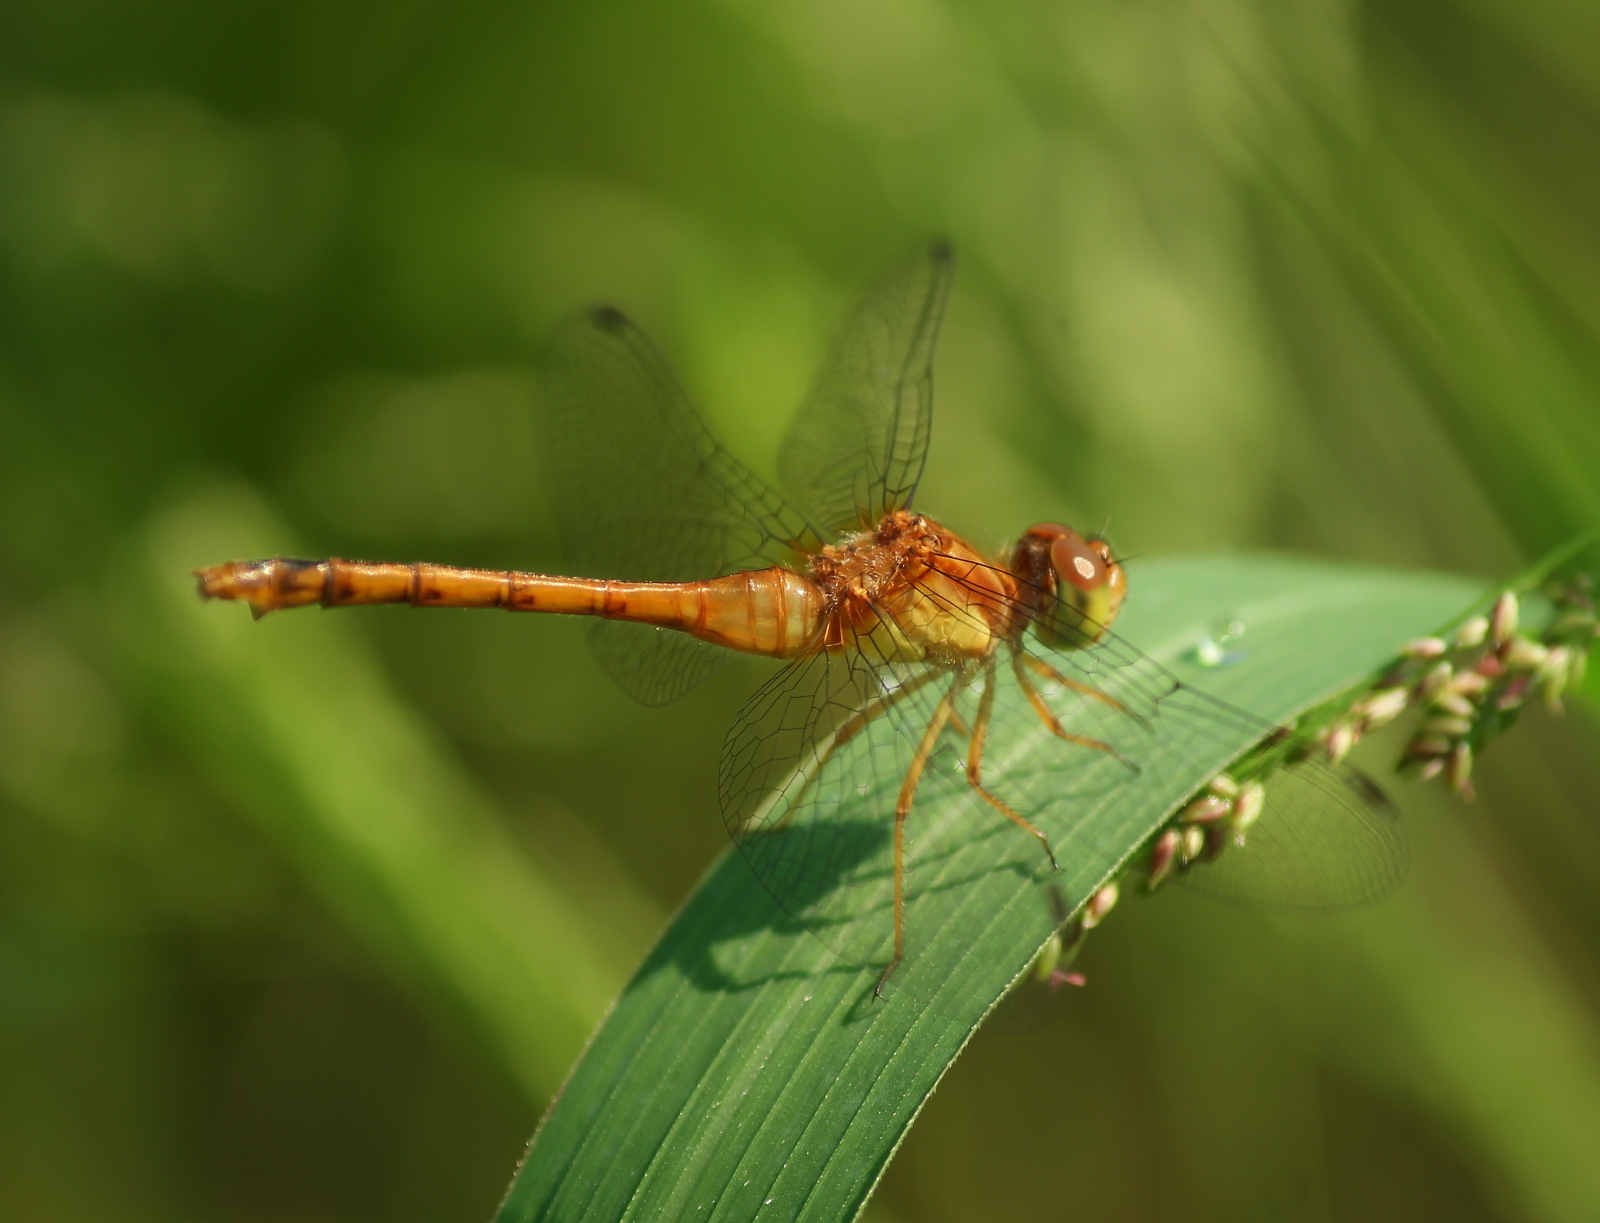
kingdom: Animalia
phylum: Arthropoda
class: Insecta
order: Odonata
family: Libellulidae
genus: Sympetrum
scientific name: Sympetrum vicinum
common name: Autumn meadowhawk
